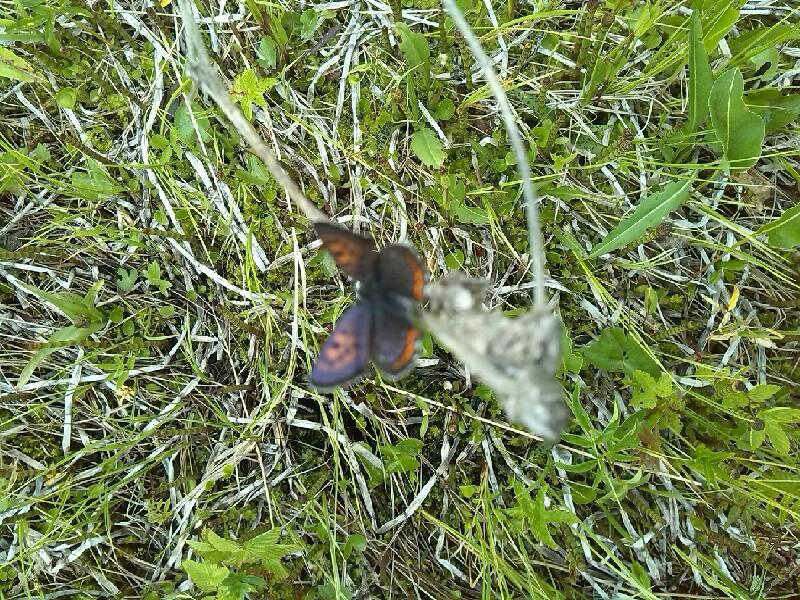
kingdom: Animalia
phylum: Arthropoda
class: Insecta
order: Lepidoptera
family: Lycaenidae
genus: Helleia
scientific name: Helleia helle
